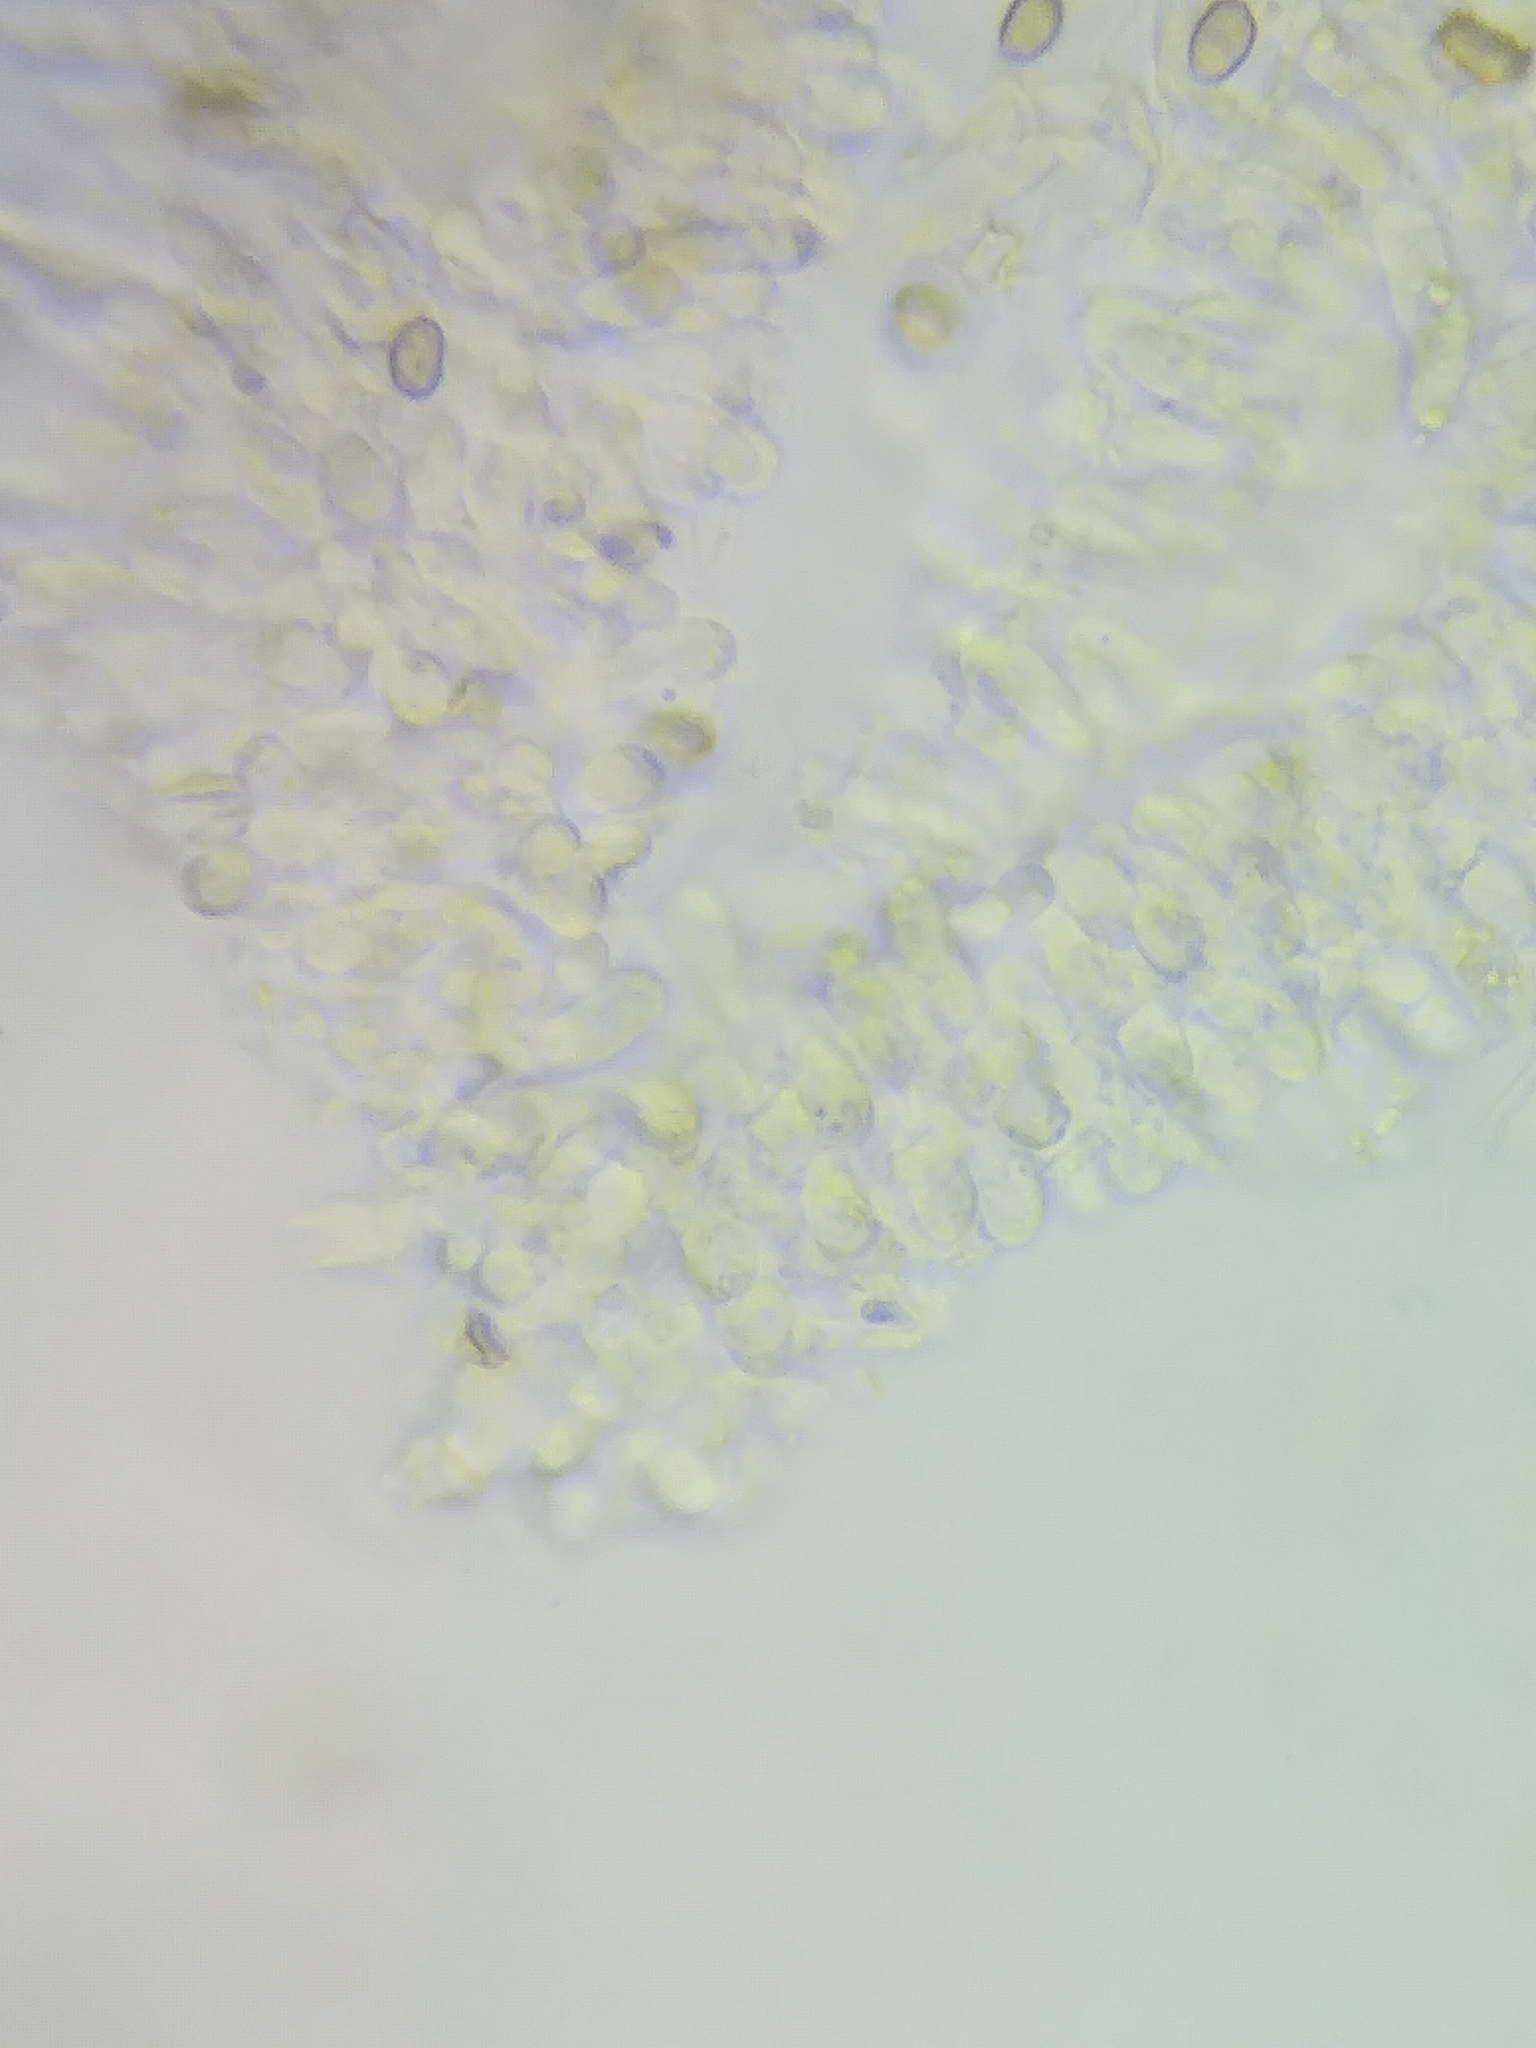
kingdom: Fungi
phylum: Basidiomycota
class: Agaricomycetes
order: Agaricales
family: Strophariaceae
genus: Pholiota
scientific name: Pholiota granulosa
